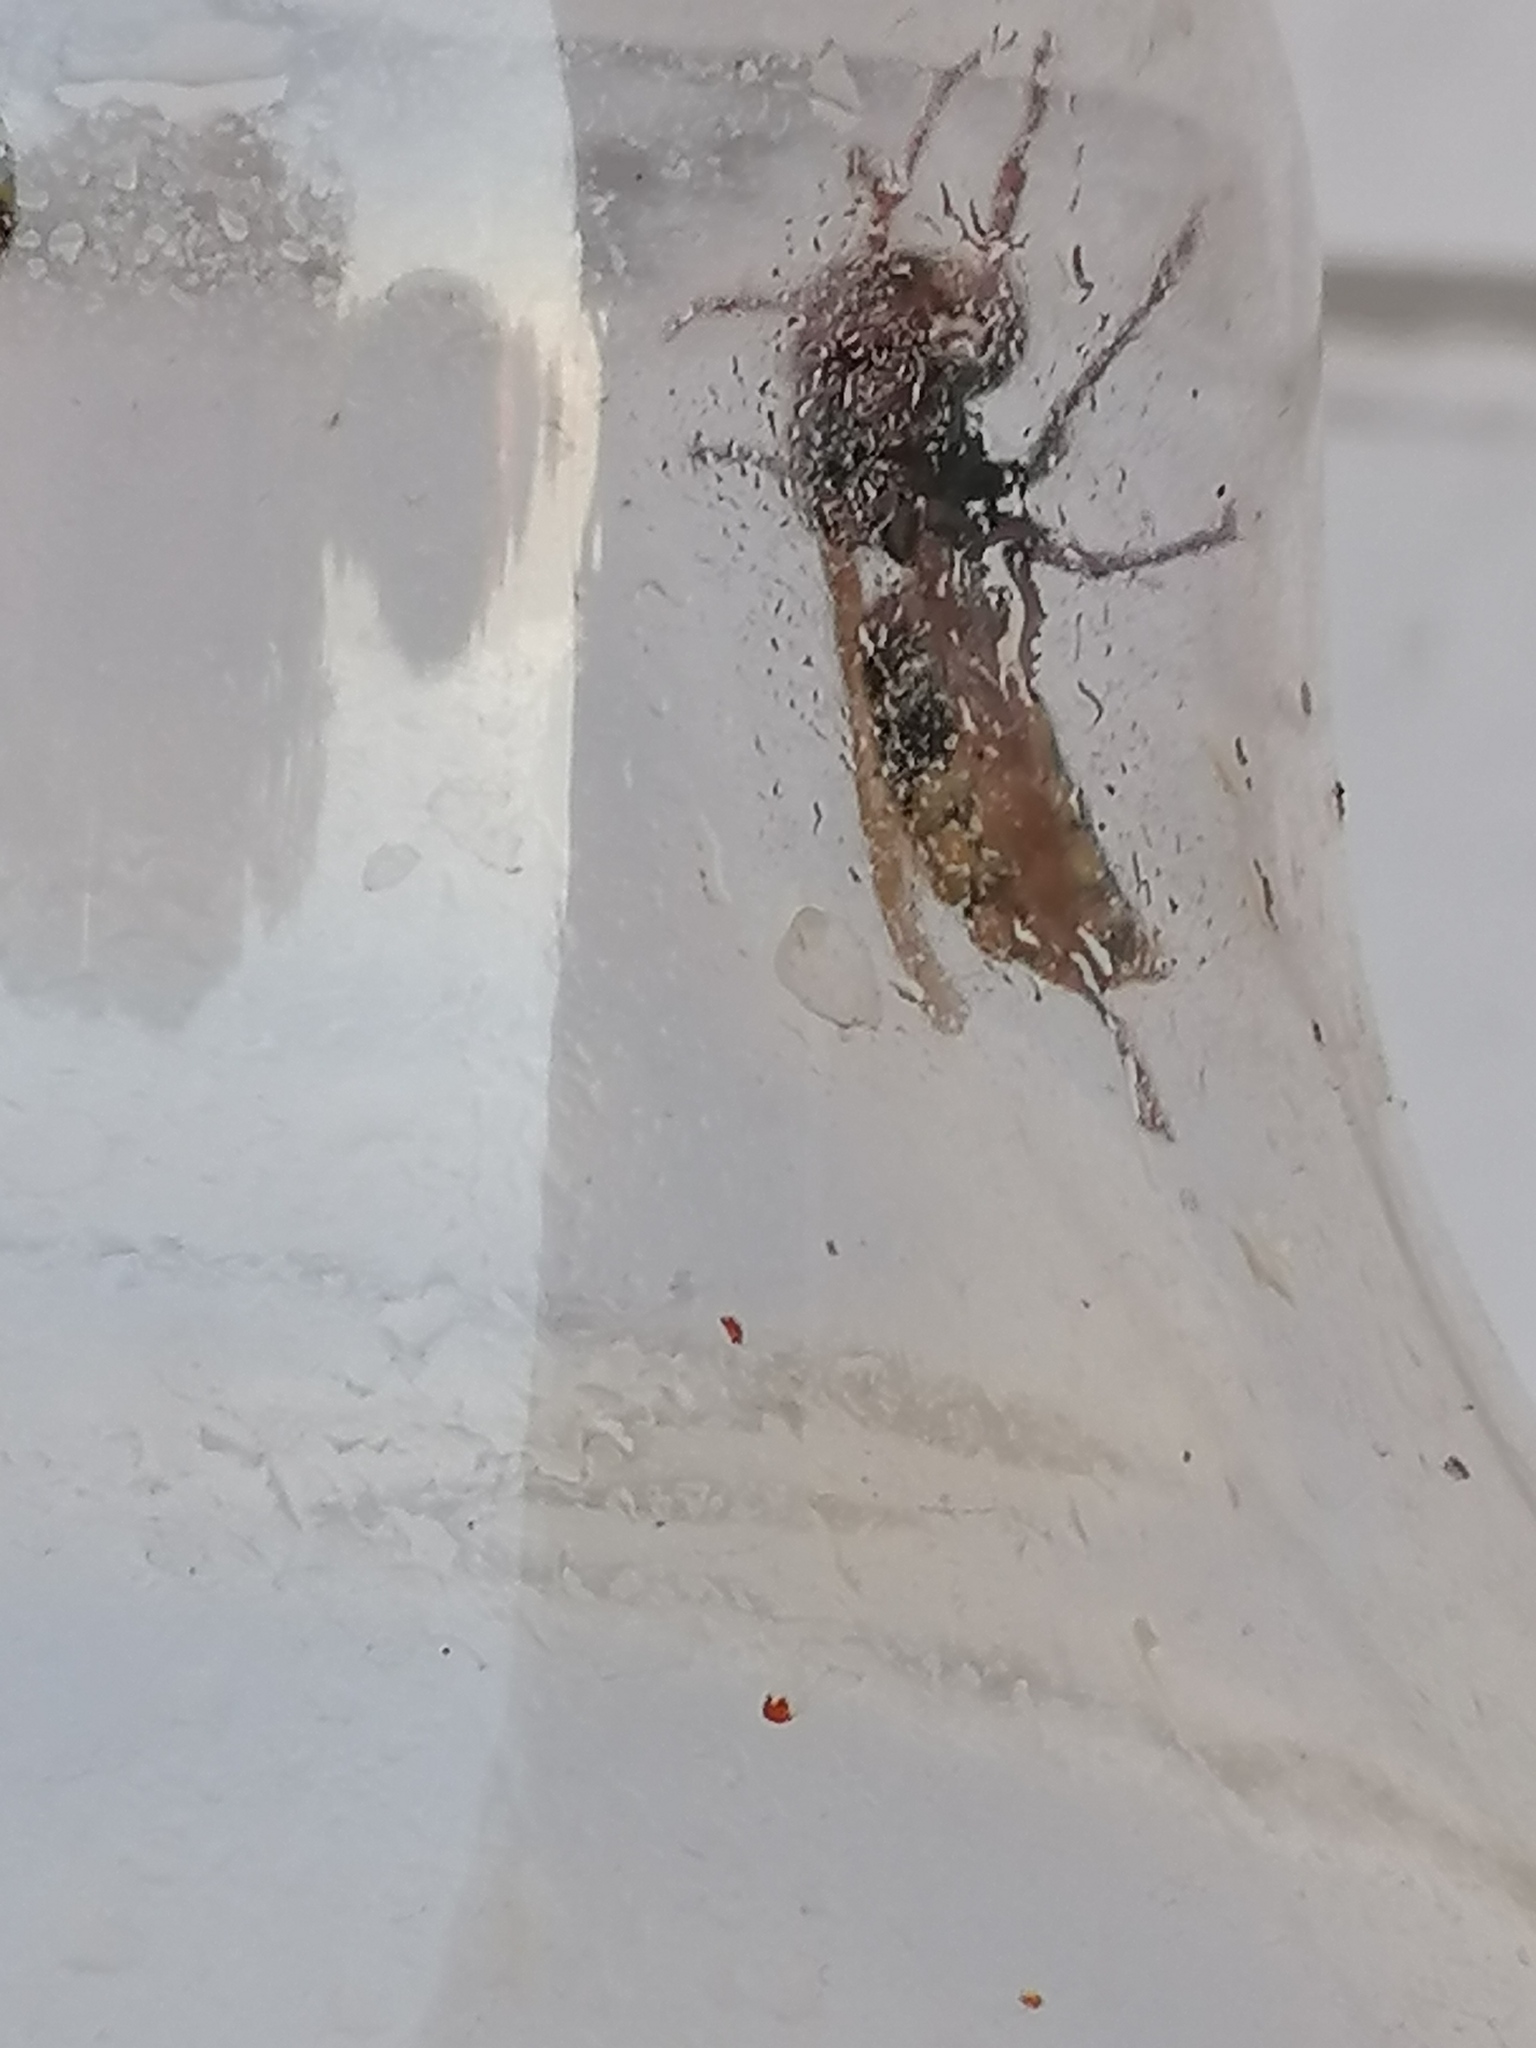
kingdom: Animalia
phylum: Arthropoda
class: Insecta
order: Hymenoptera
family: Vespidae
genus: Vespa
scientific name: Vespa crabro
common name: Hornet
